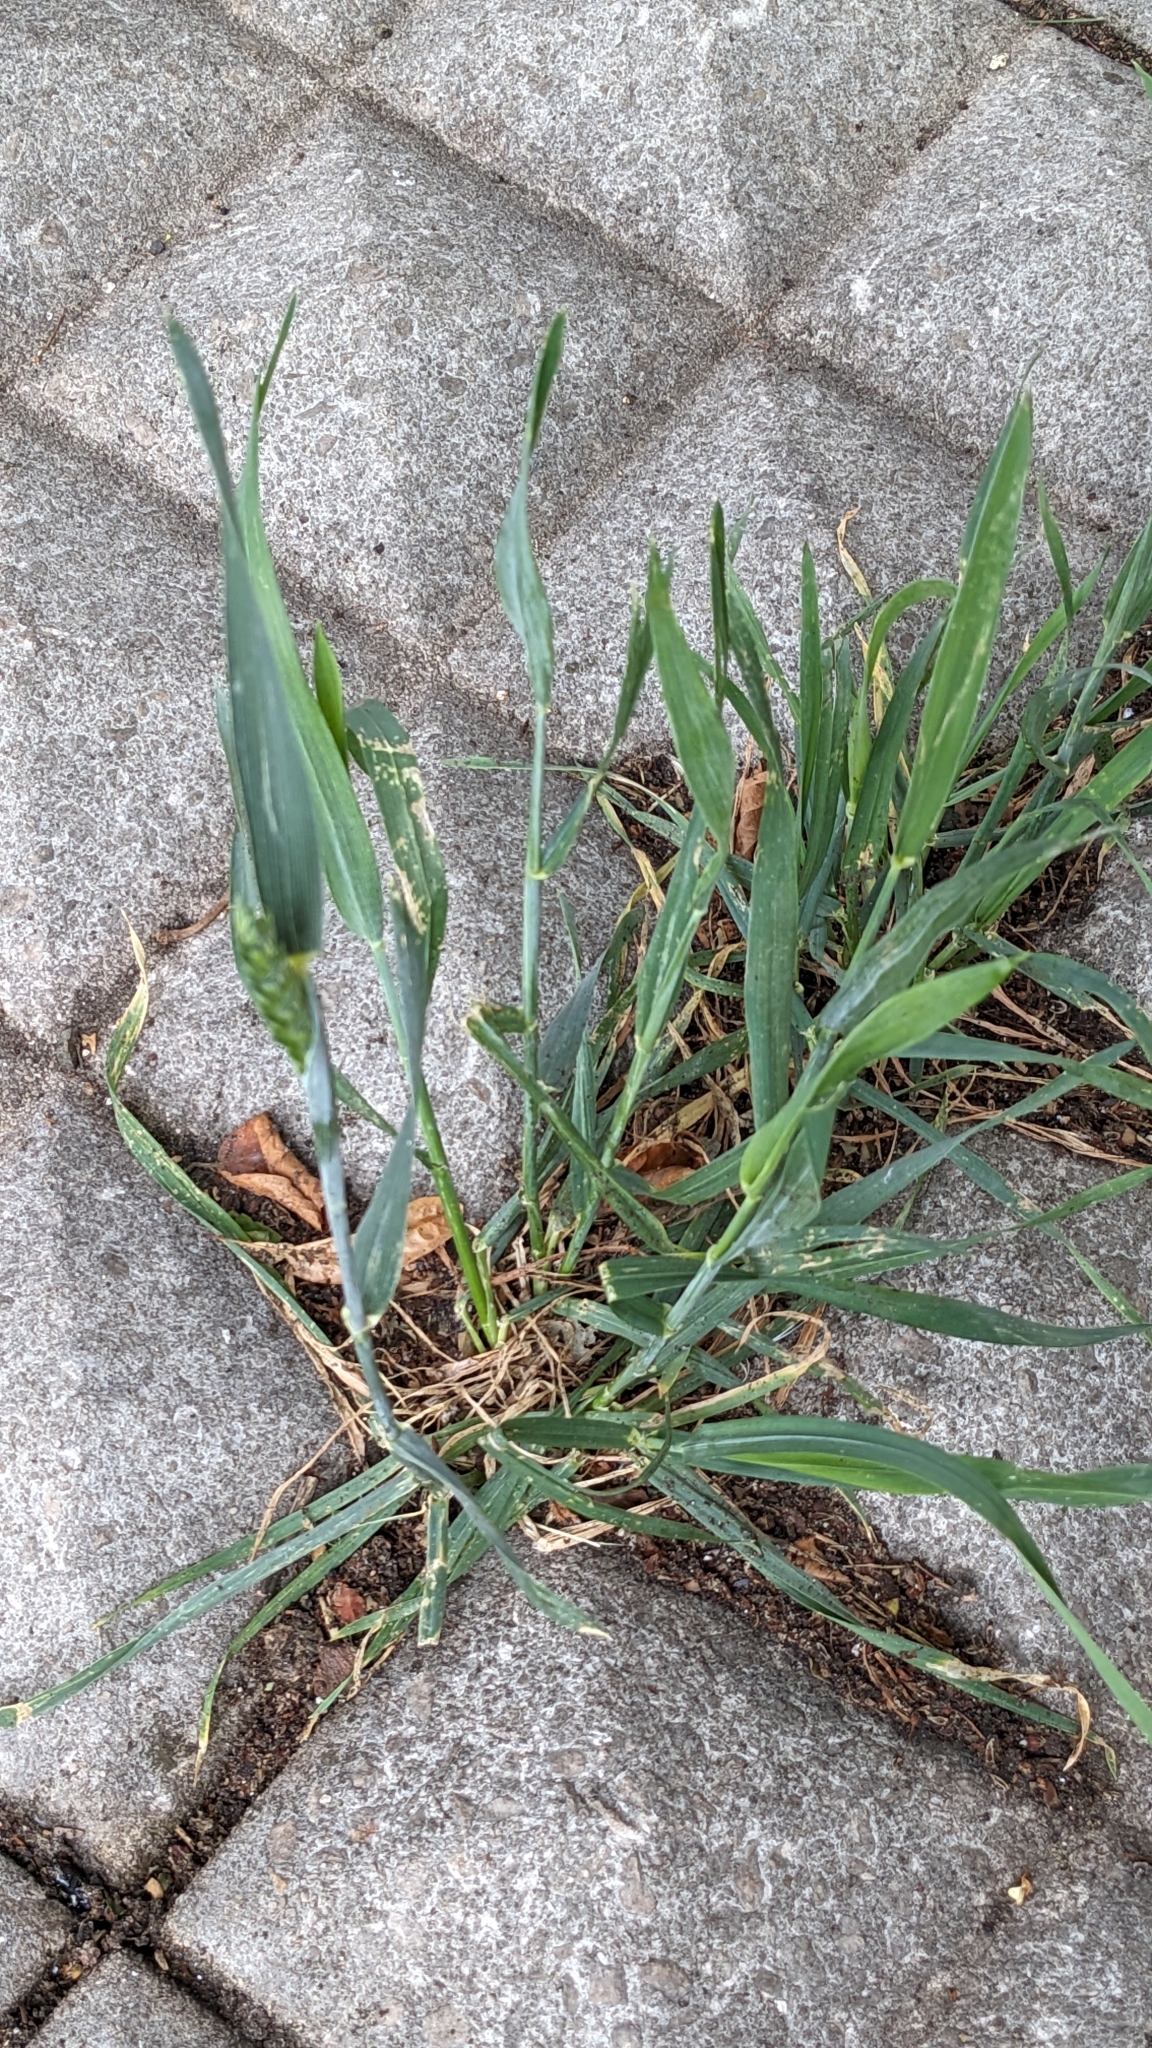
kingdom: Plantae
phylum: Tracheophyta
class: Liliopsida
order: Poales
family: Poaceae
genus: Triticum
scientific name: Triticum aestivum
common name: Common wheat
